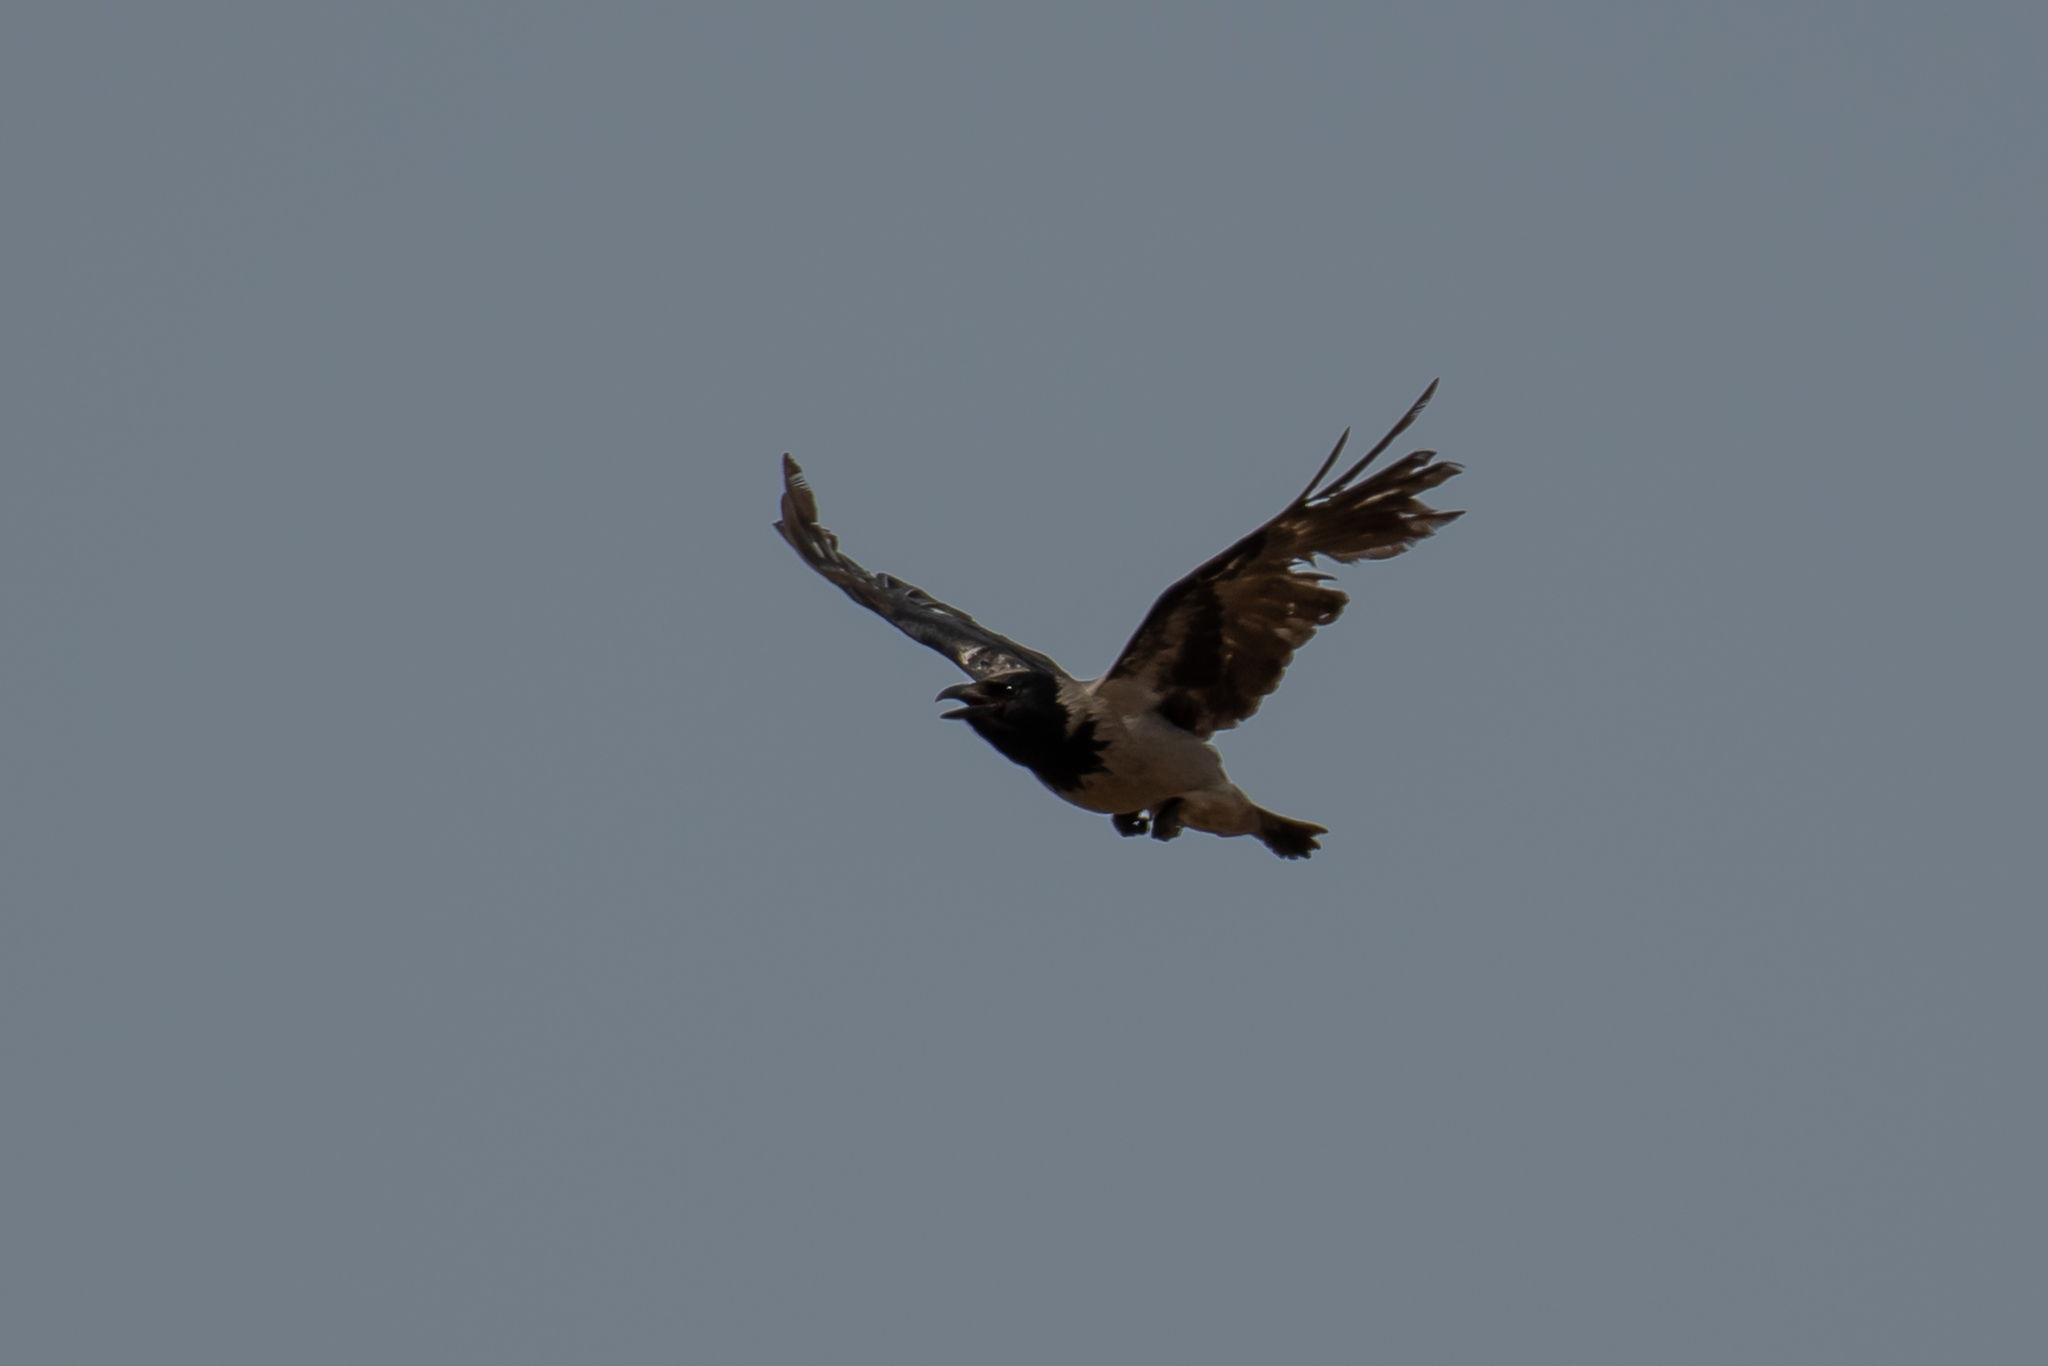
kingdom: Animalia
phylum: Chordata
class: Aves
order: Passeriformes
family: Corvidae
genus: Corvus
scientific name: Corvus cornix
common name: Hooded crow
